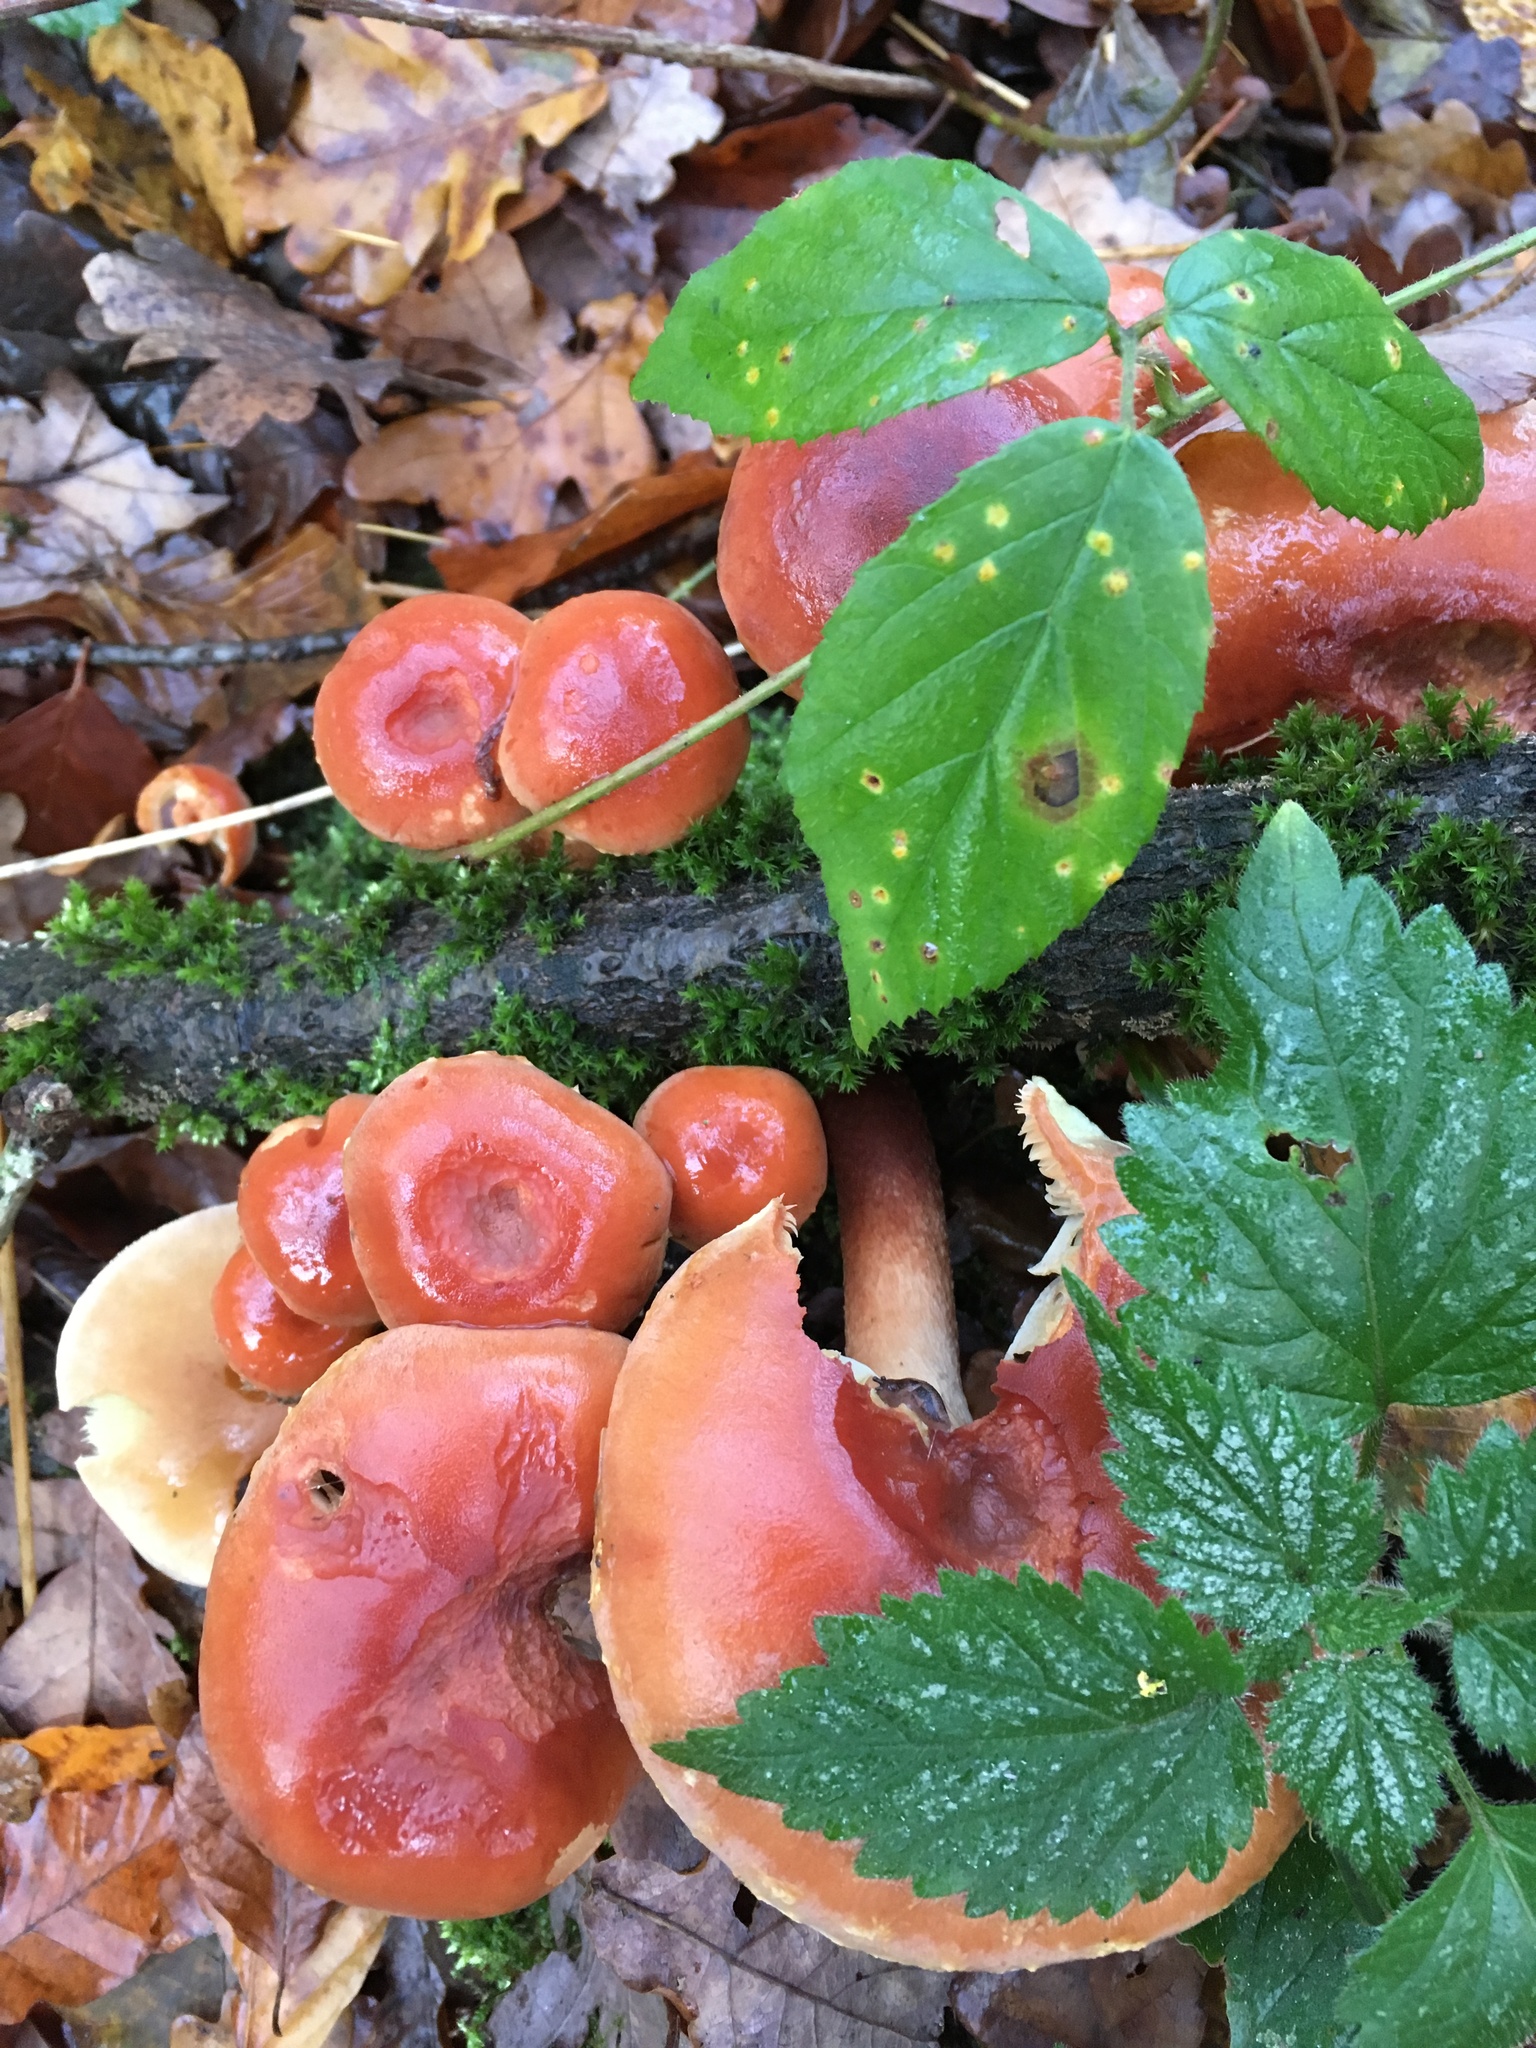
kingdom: Fungi
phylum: Basidiomycota
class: Agaricomycetes
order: Agaricales
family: Strophariaceae
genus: Hypholoma
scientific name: Hypholoma lateritium
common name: Brick caps
